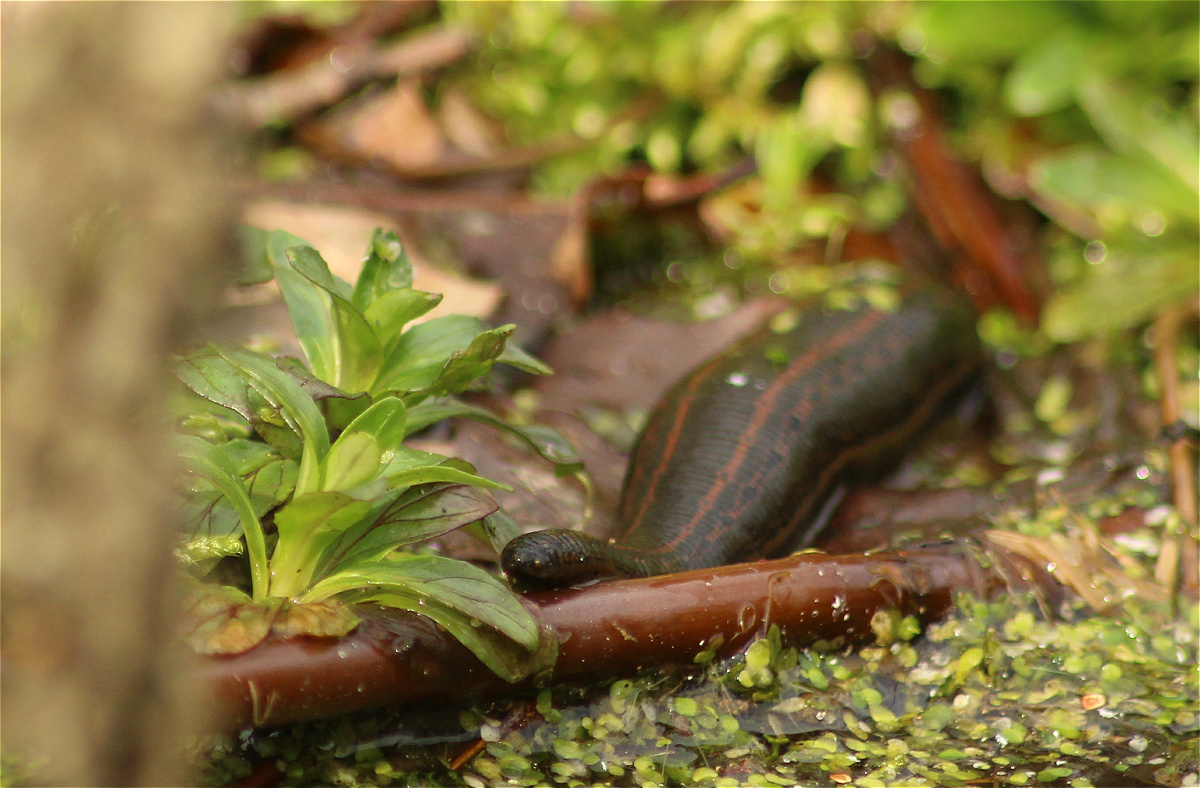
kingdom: Animalia
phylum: Annelida
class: Clitellata
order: Arhynchobdellida
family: Hirudinidae
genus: Hirudo
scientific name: Hirudo medicinalis
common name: Medicinal leech
